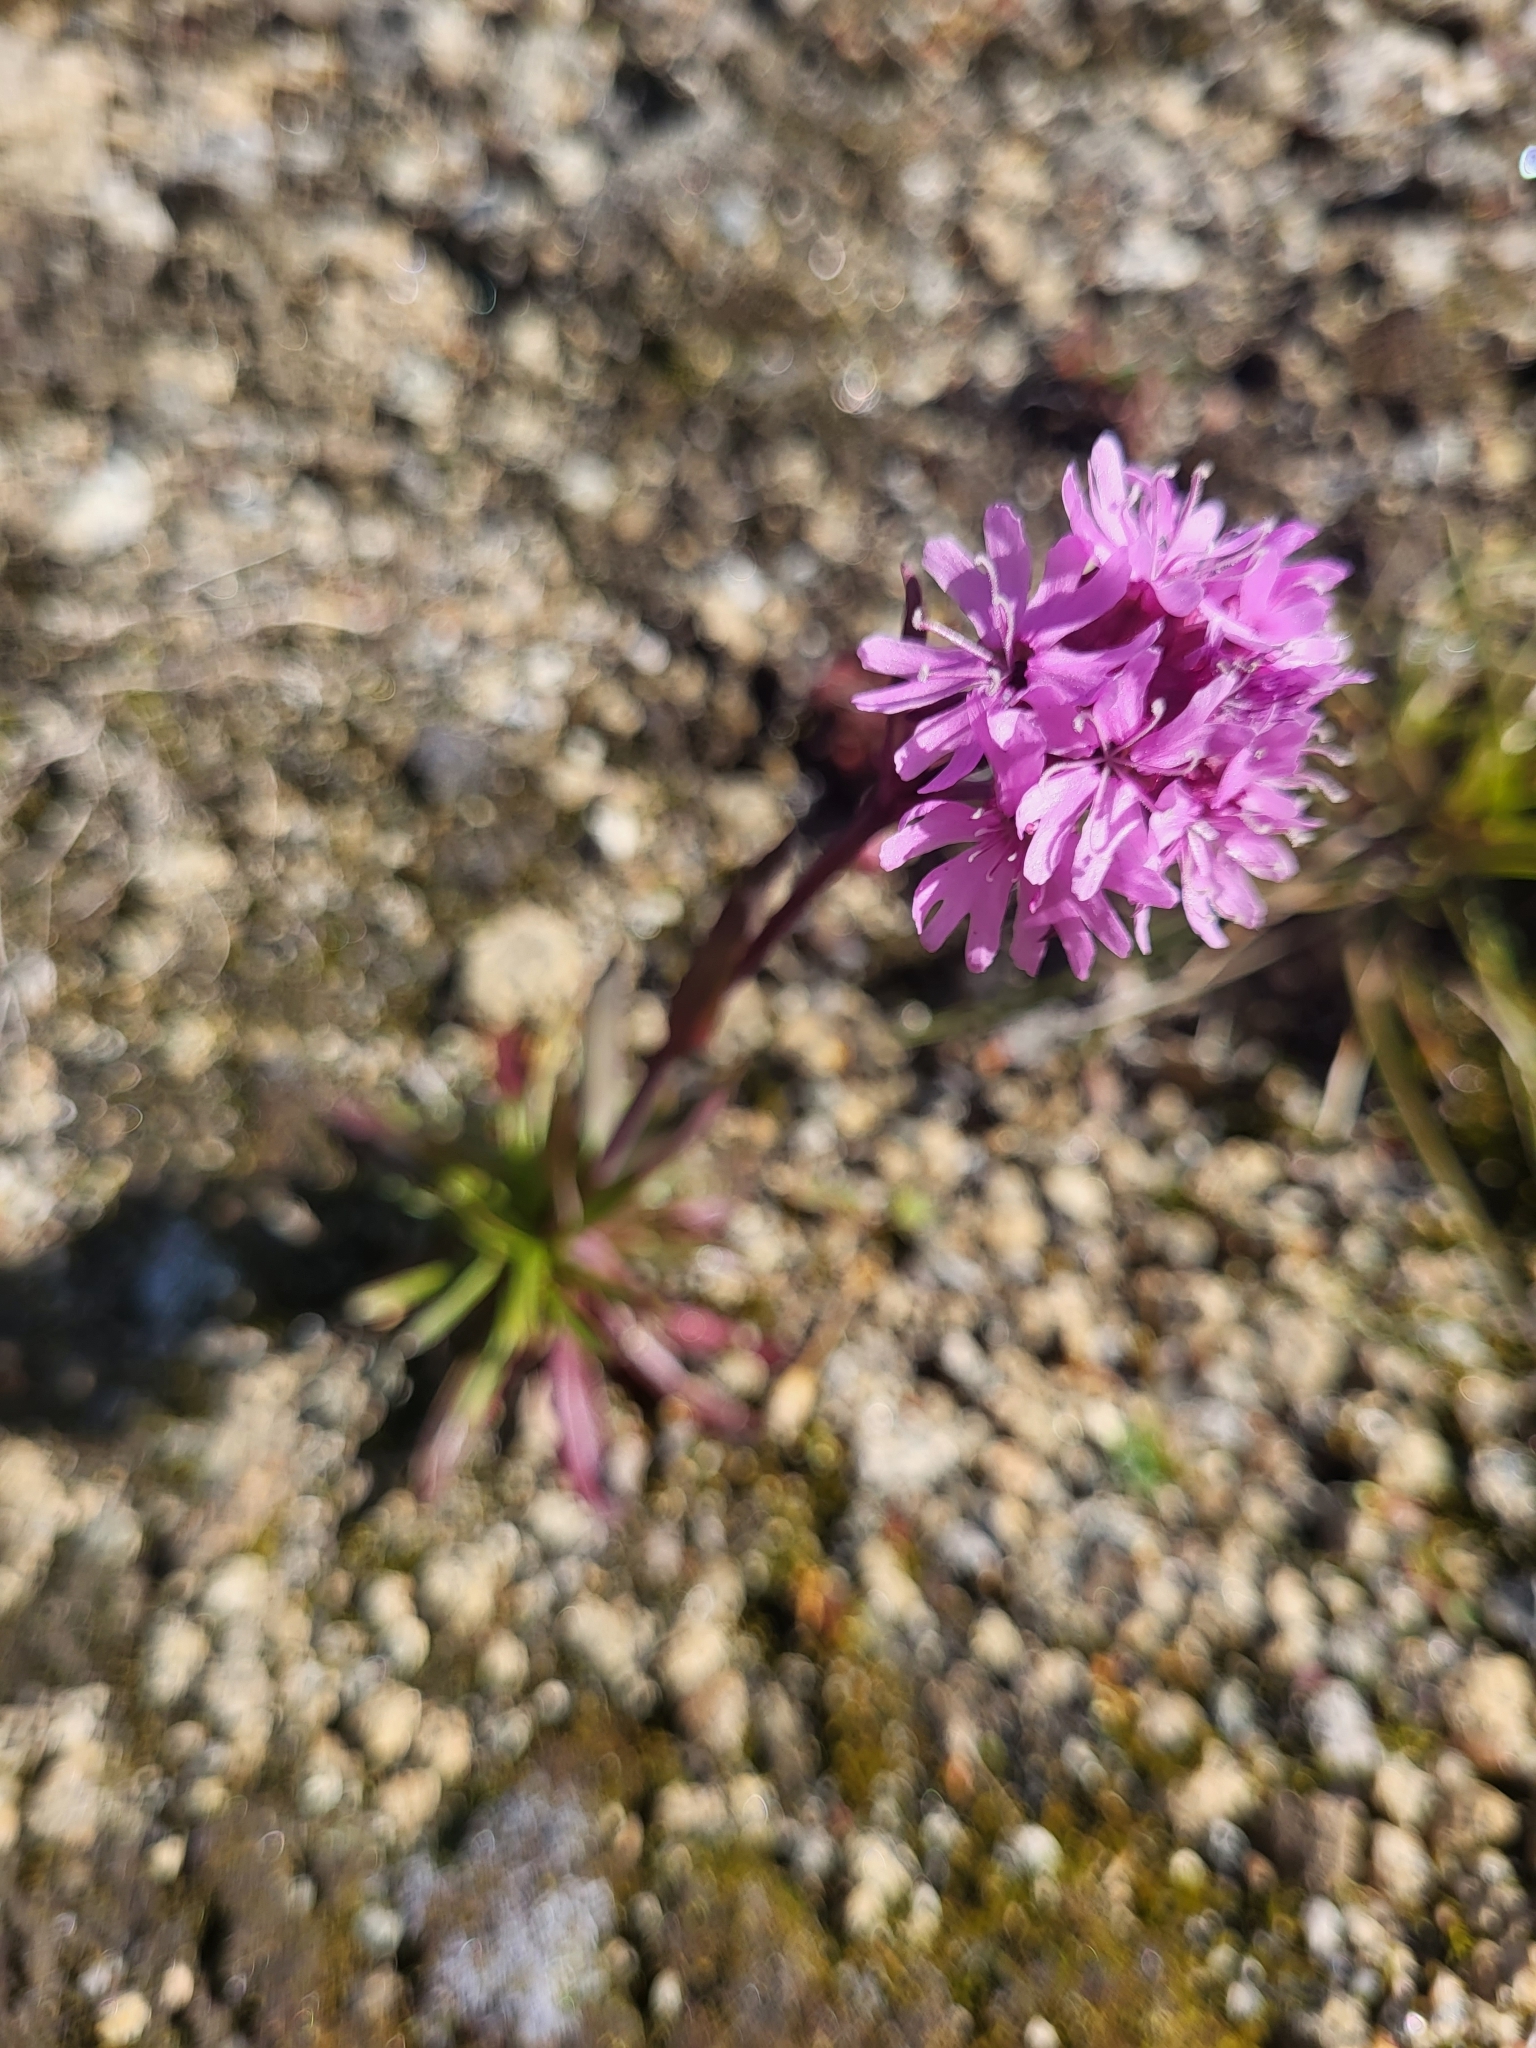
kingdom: Plantae
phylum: Tracheophyta
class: Magnoliopsida
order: Caryophyllales
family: Caryophyllaceae
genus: Viscaria
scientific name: Viscaria alpina
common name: Alpine campion
